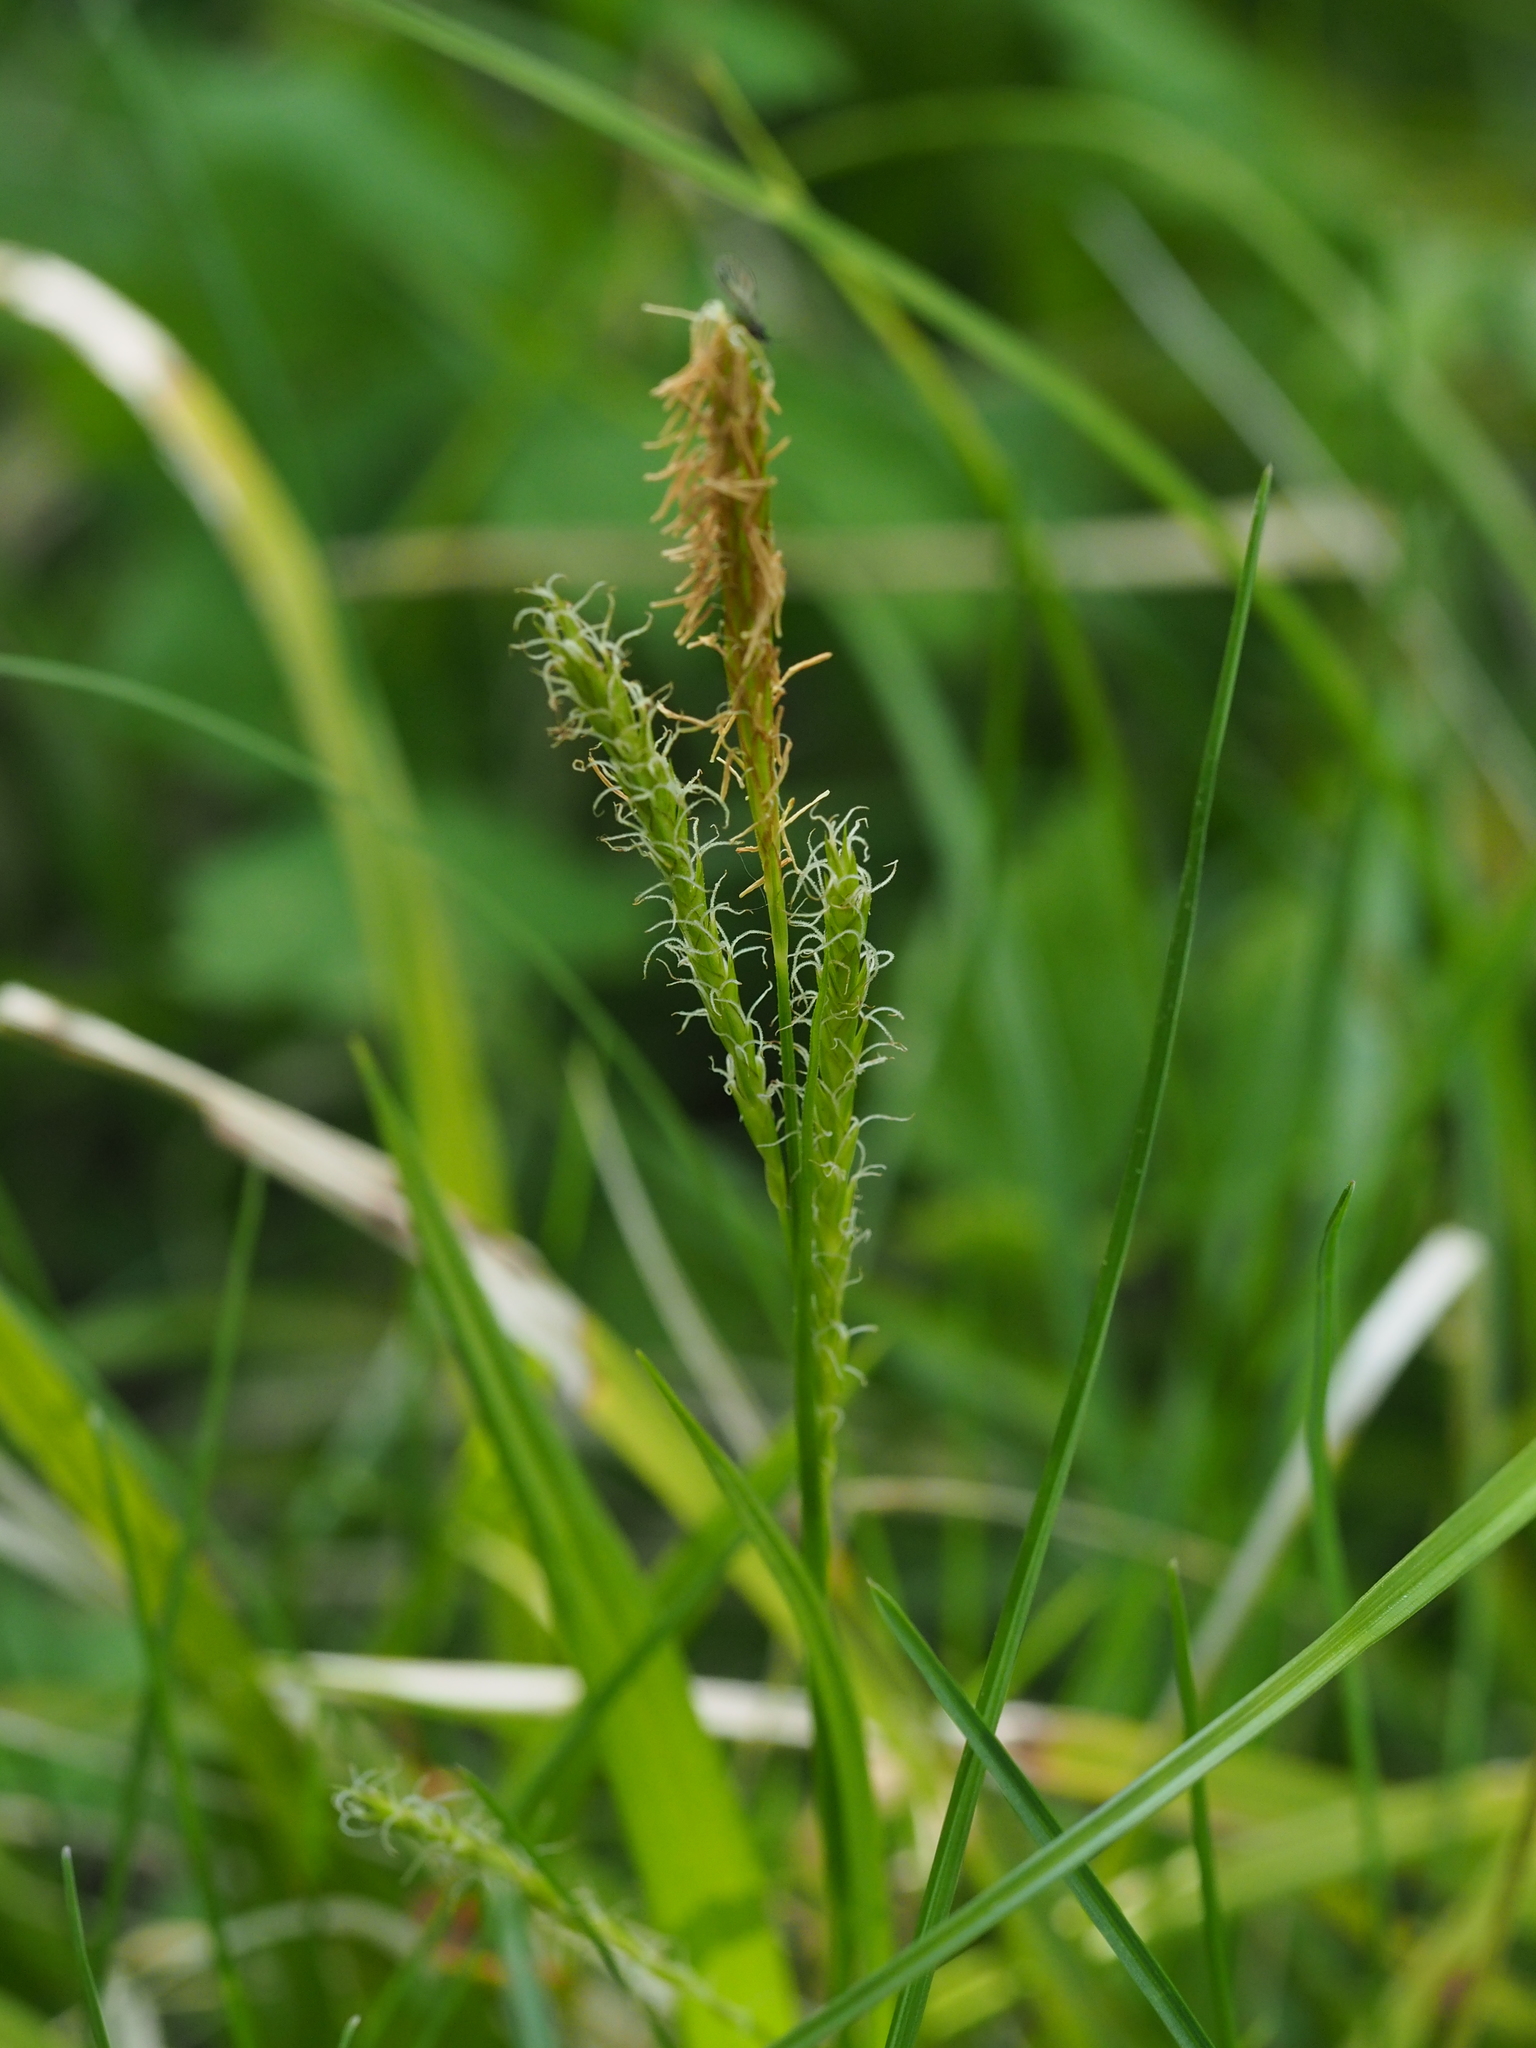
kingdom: Plantae
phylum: Tracheophyta
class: Liliopsida
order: Poales
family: Cyperaceae
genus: Carex
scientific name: Carex sylvatica
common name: Wood-sedge
